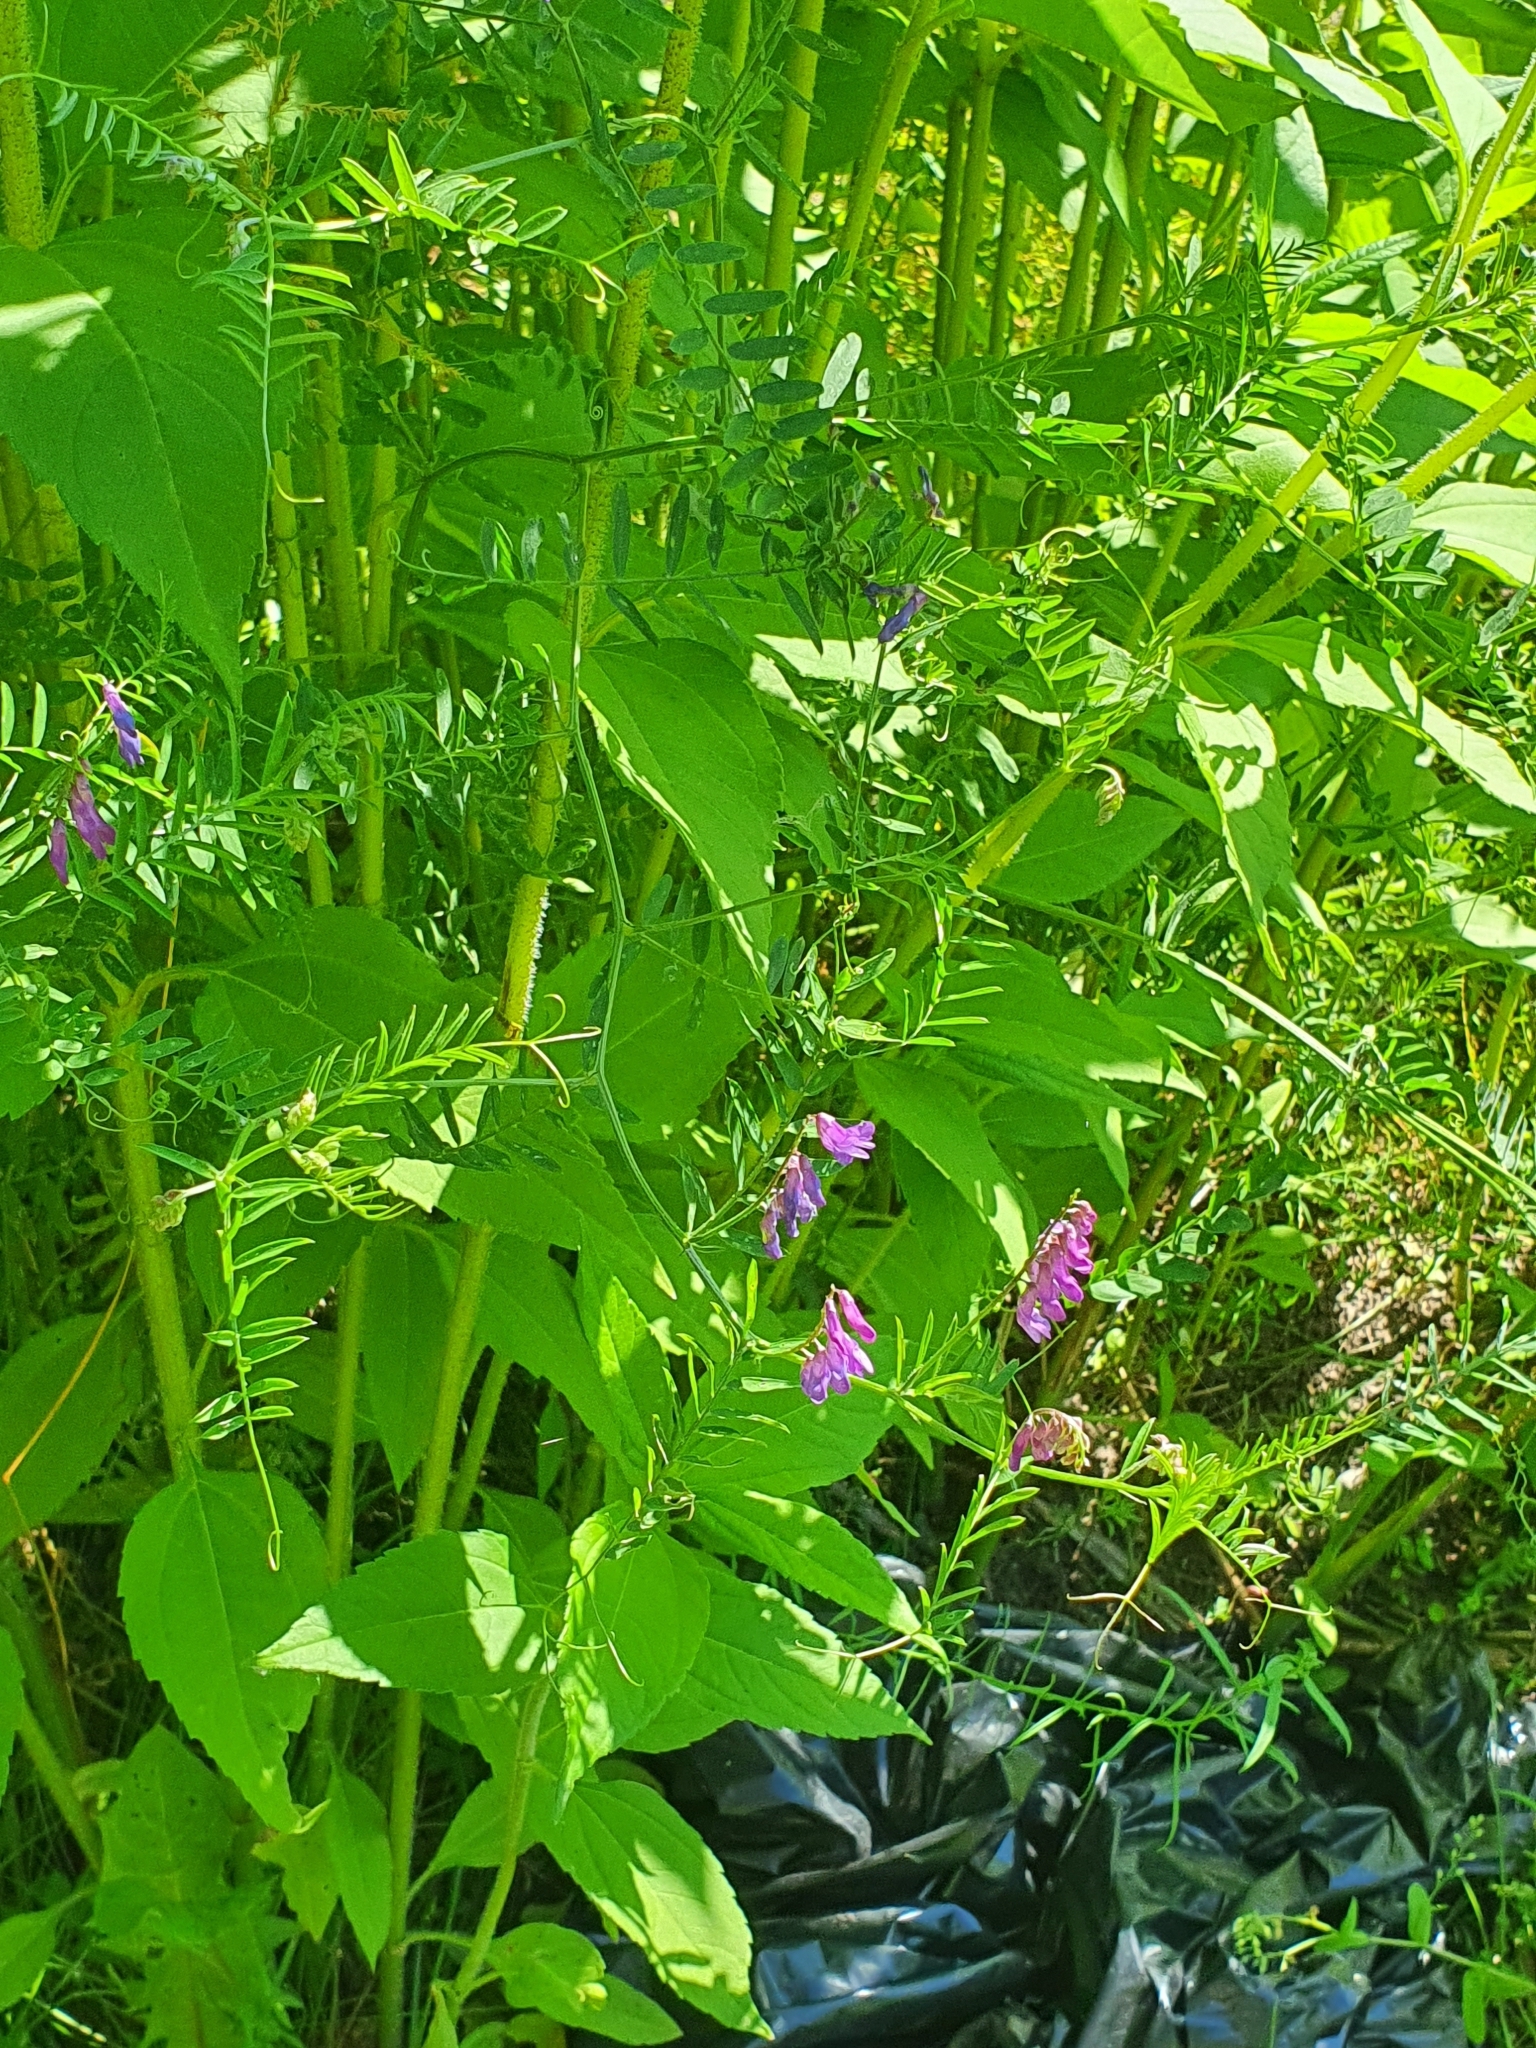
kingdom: Plantae
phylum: Tracheophyta
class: Magnoliopsida
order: Fabales
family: Fabaceae
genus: Vicia
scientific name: Vicia cracca
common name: Bird vetch
